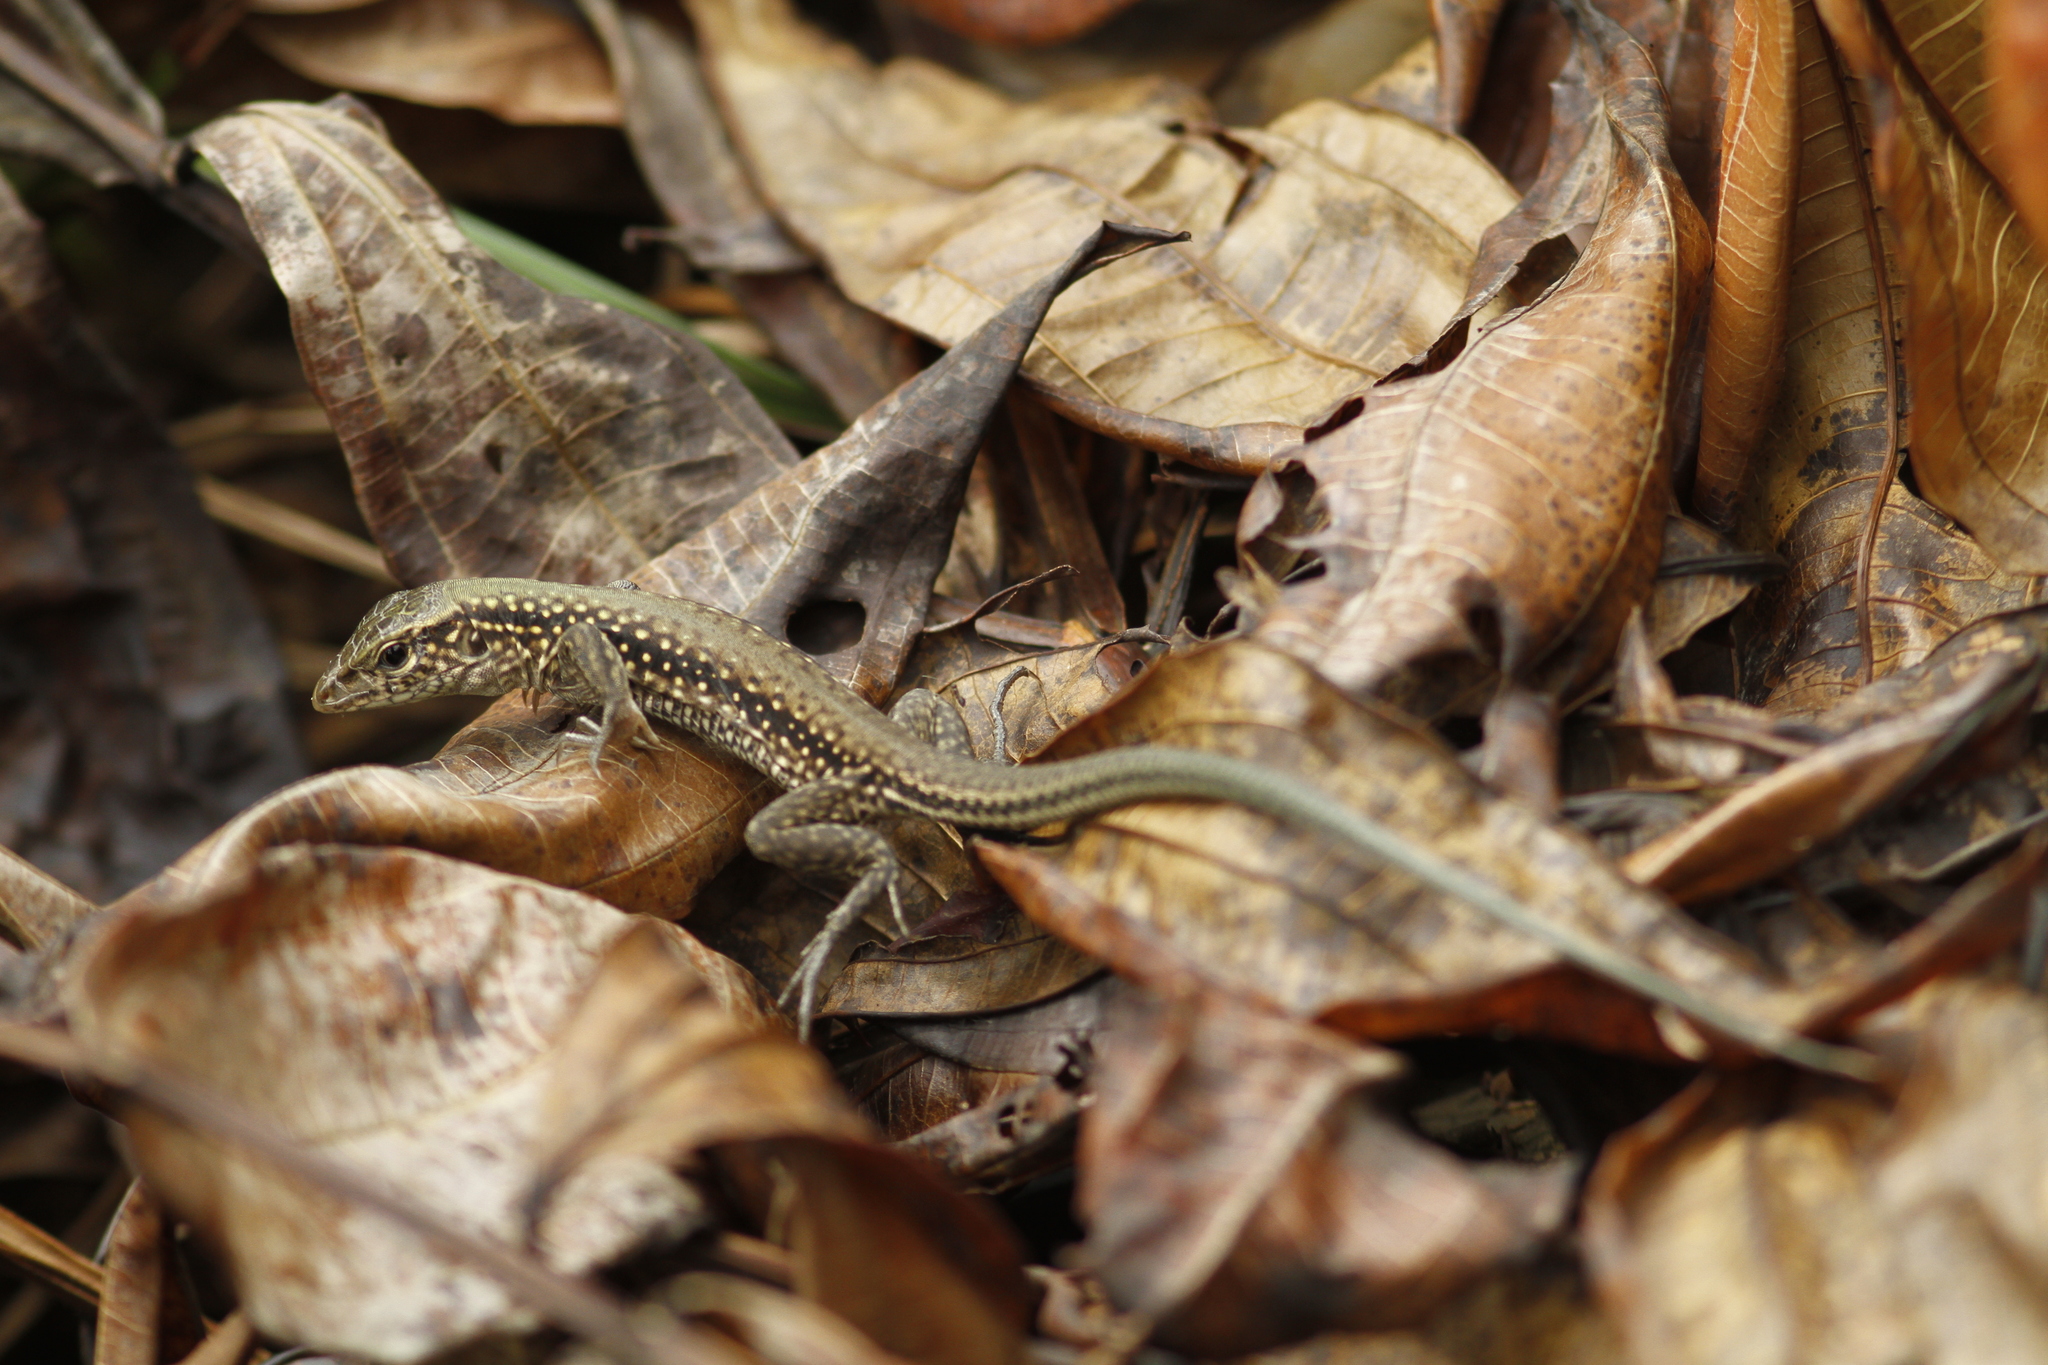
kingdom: Animalia
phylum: Chordata
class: Squamata
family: Teiidae
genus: Ameiva
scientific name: Ameiva ameiva
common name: Giant ameiva
